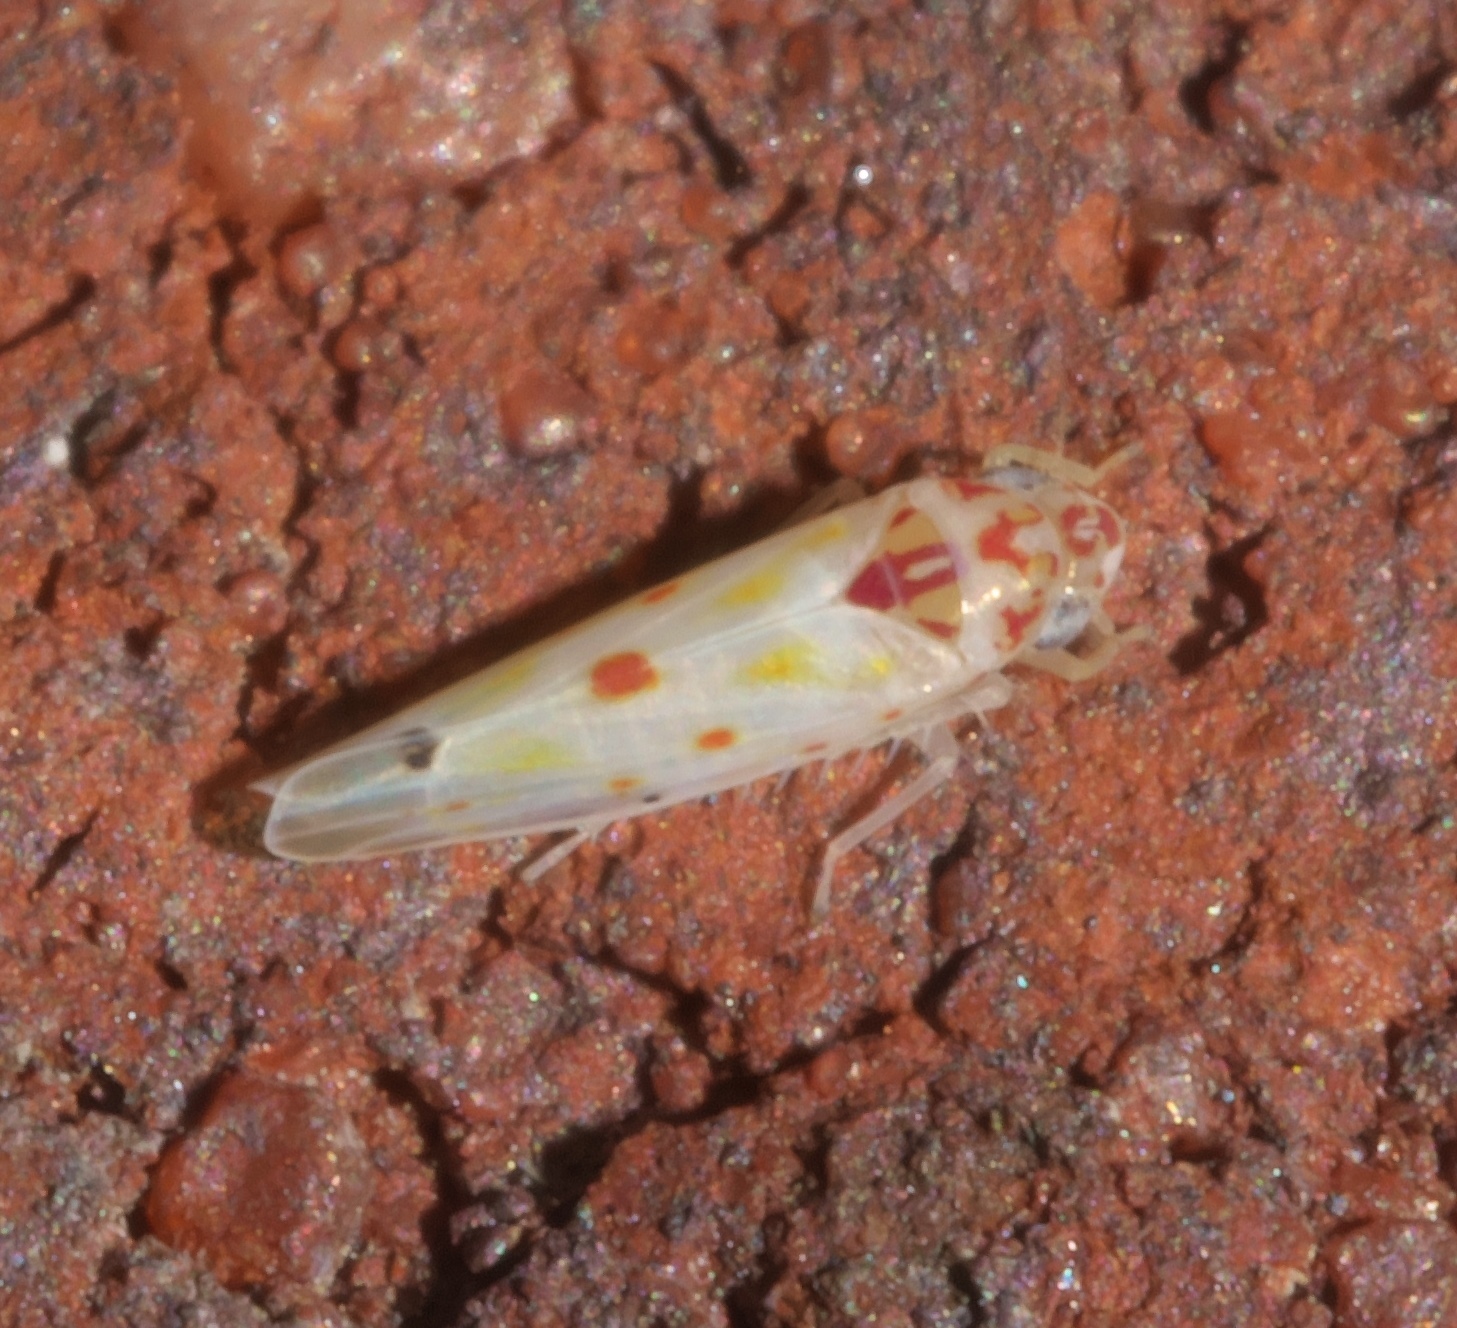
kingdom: Animalia
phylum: Arthropoda
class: Insecta
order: Hemiptera
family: Cicadellidae
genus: Eratoneura
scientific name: Eratoneura hymac
